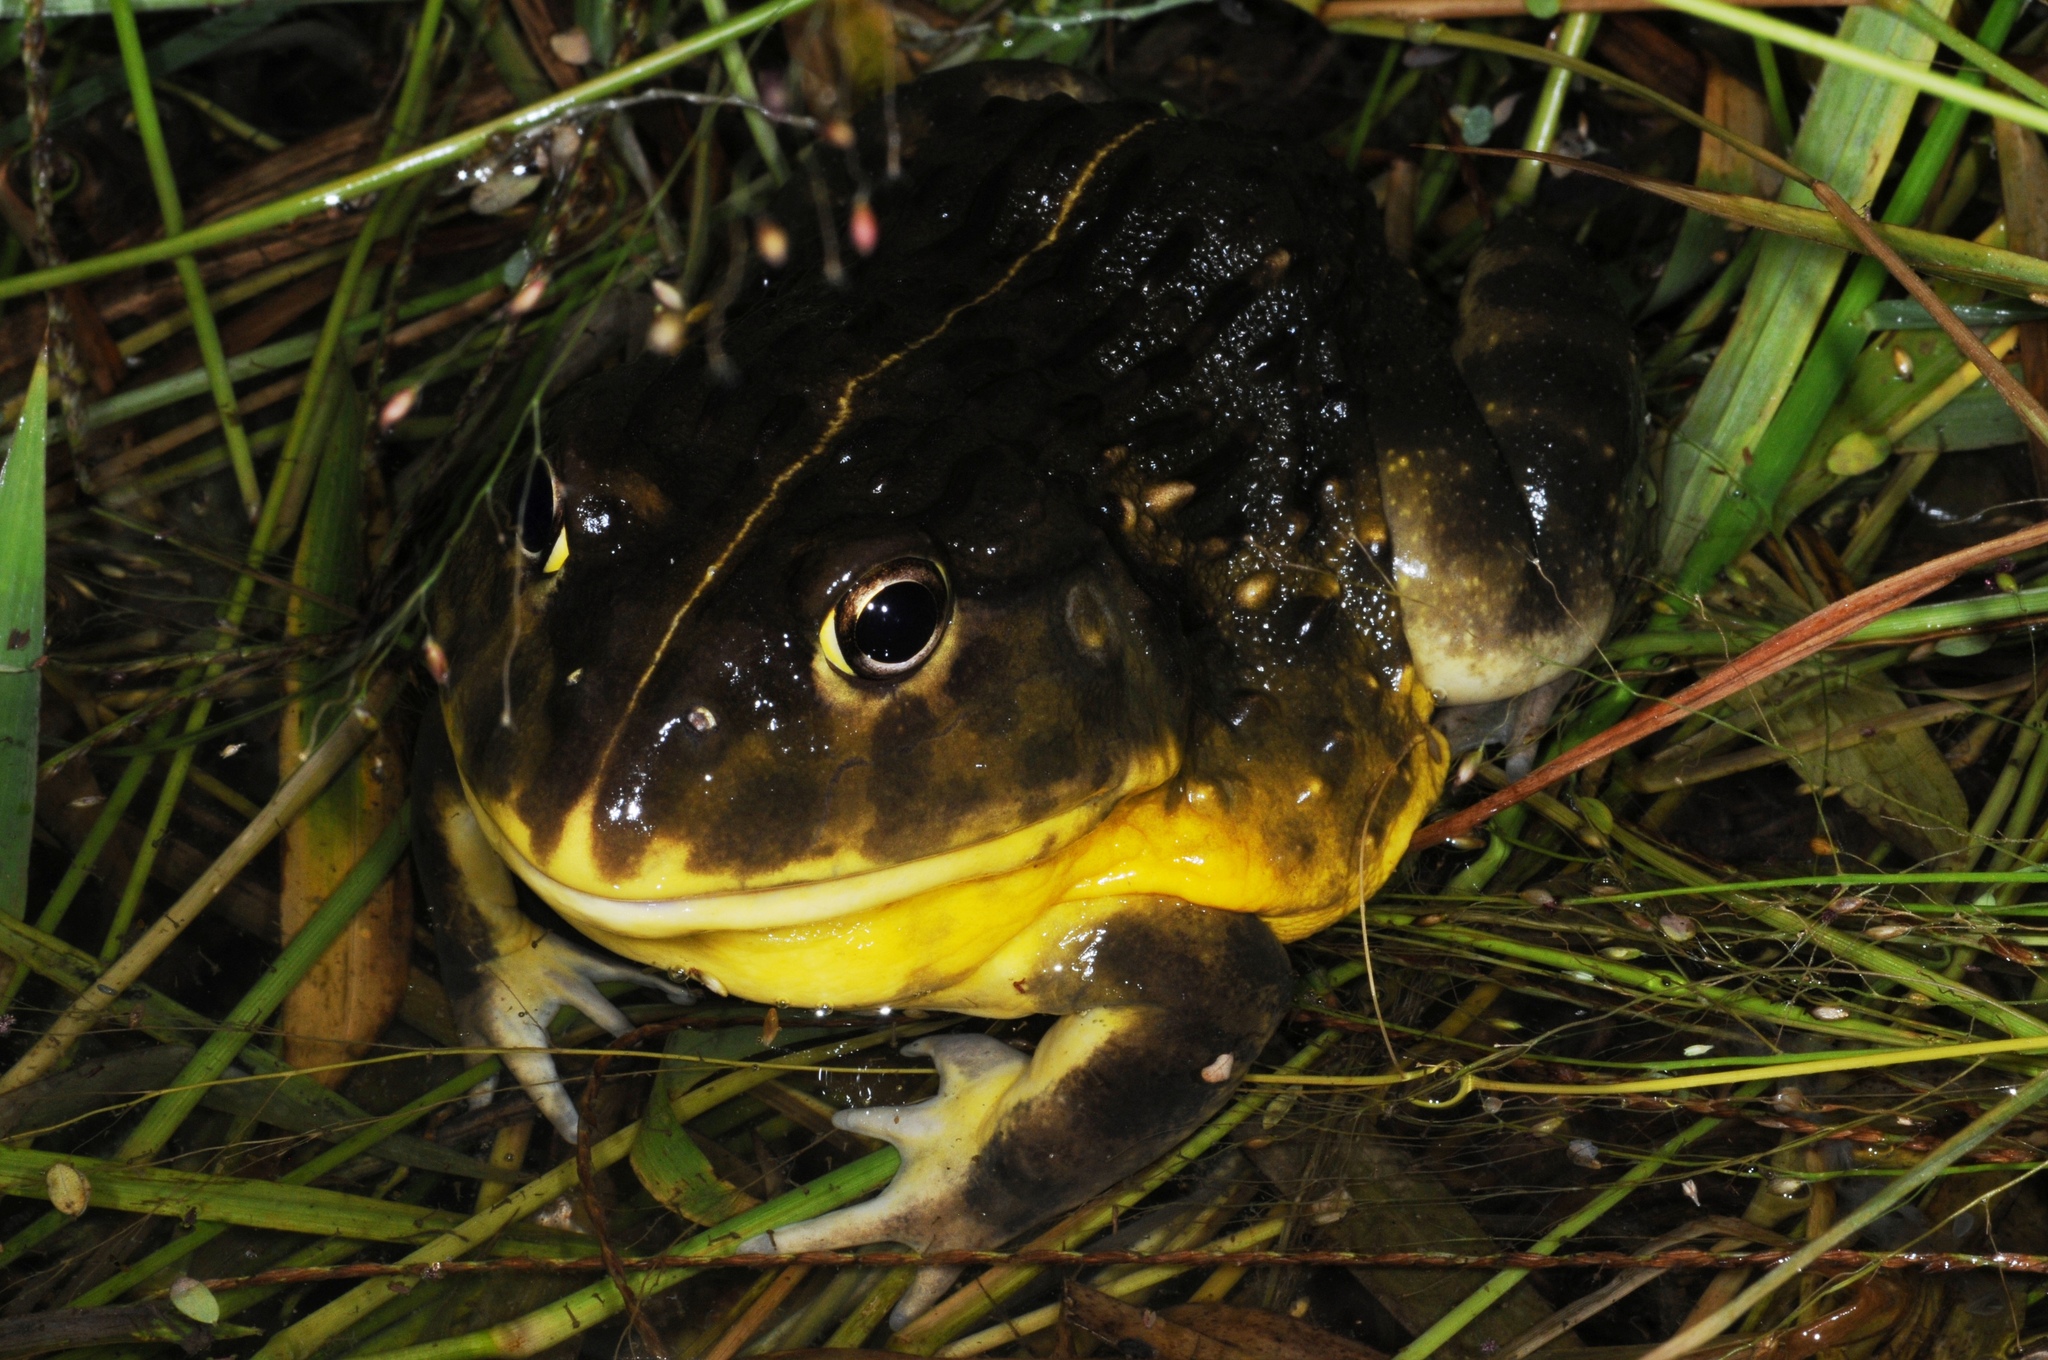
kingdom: Animalia
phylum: Chordata
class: Amphibia
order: Anura
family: Pyxicephalidae
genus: Pyxicephalus
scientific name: Pyxicephalus edulis
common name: Peter's bullfrog
